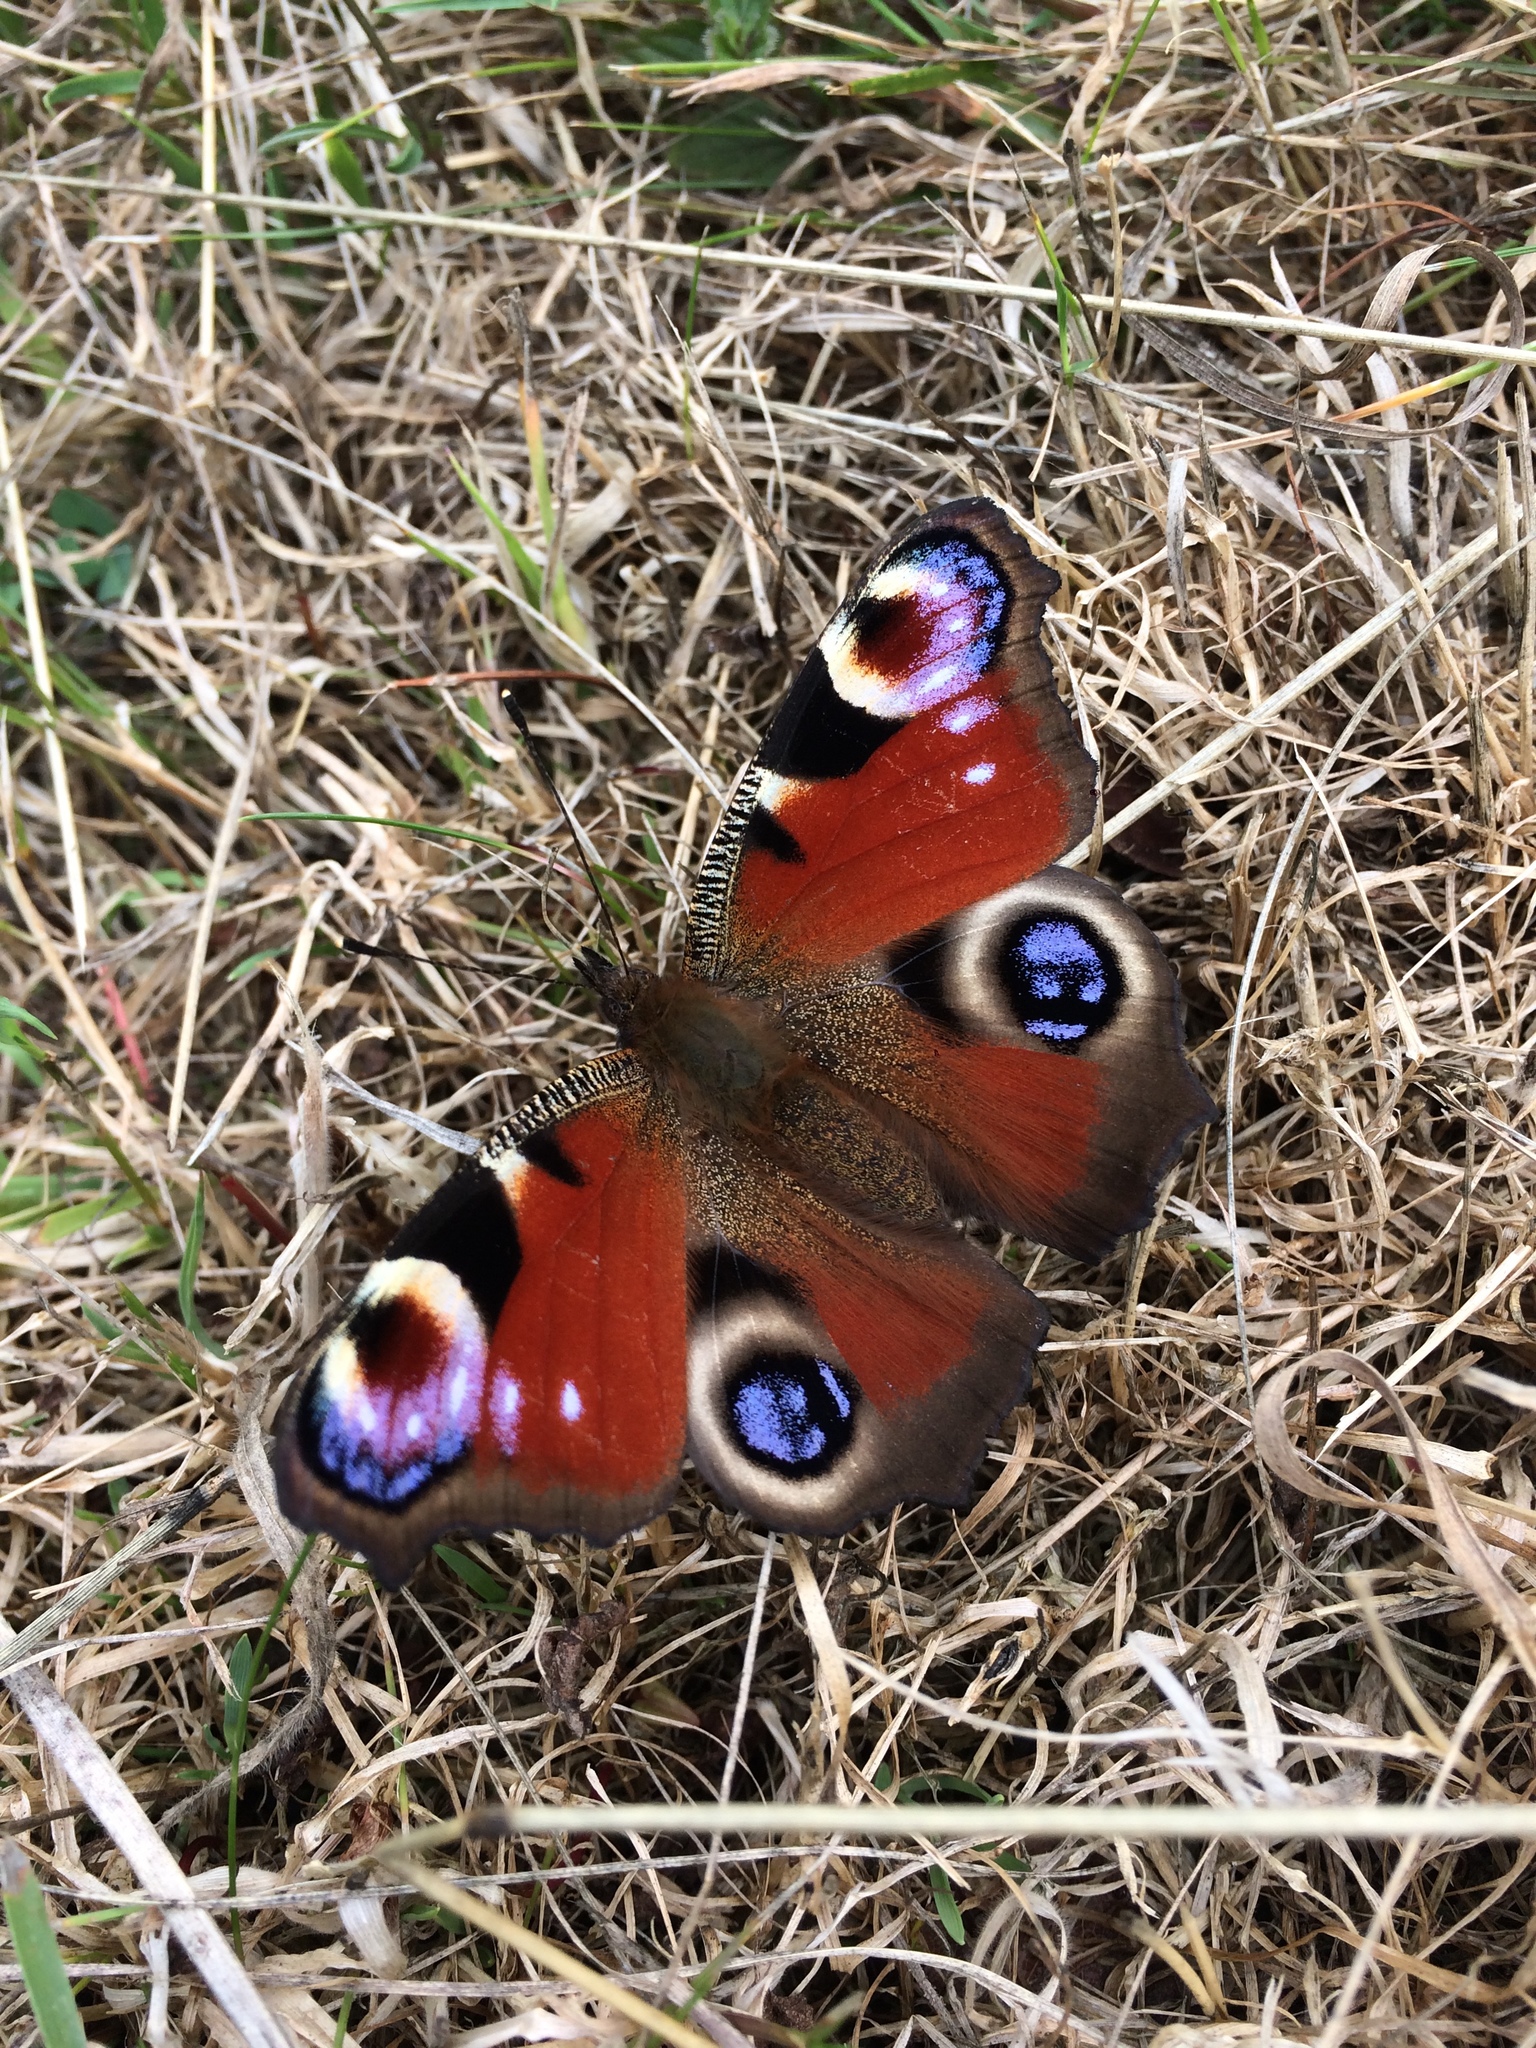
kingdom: Animalia
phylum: Arthropoda
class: Insecta
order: Lepidoptera
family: Nymphalidae
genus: Aglais
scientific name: Aglais io
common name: Peacock
